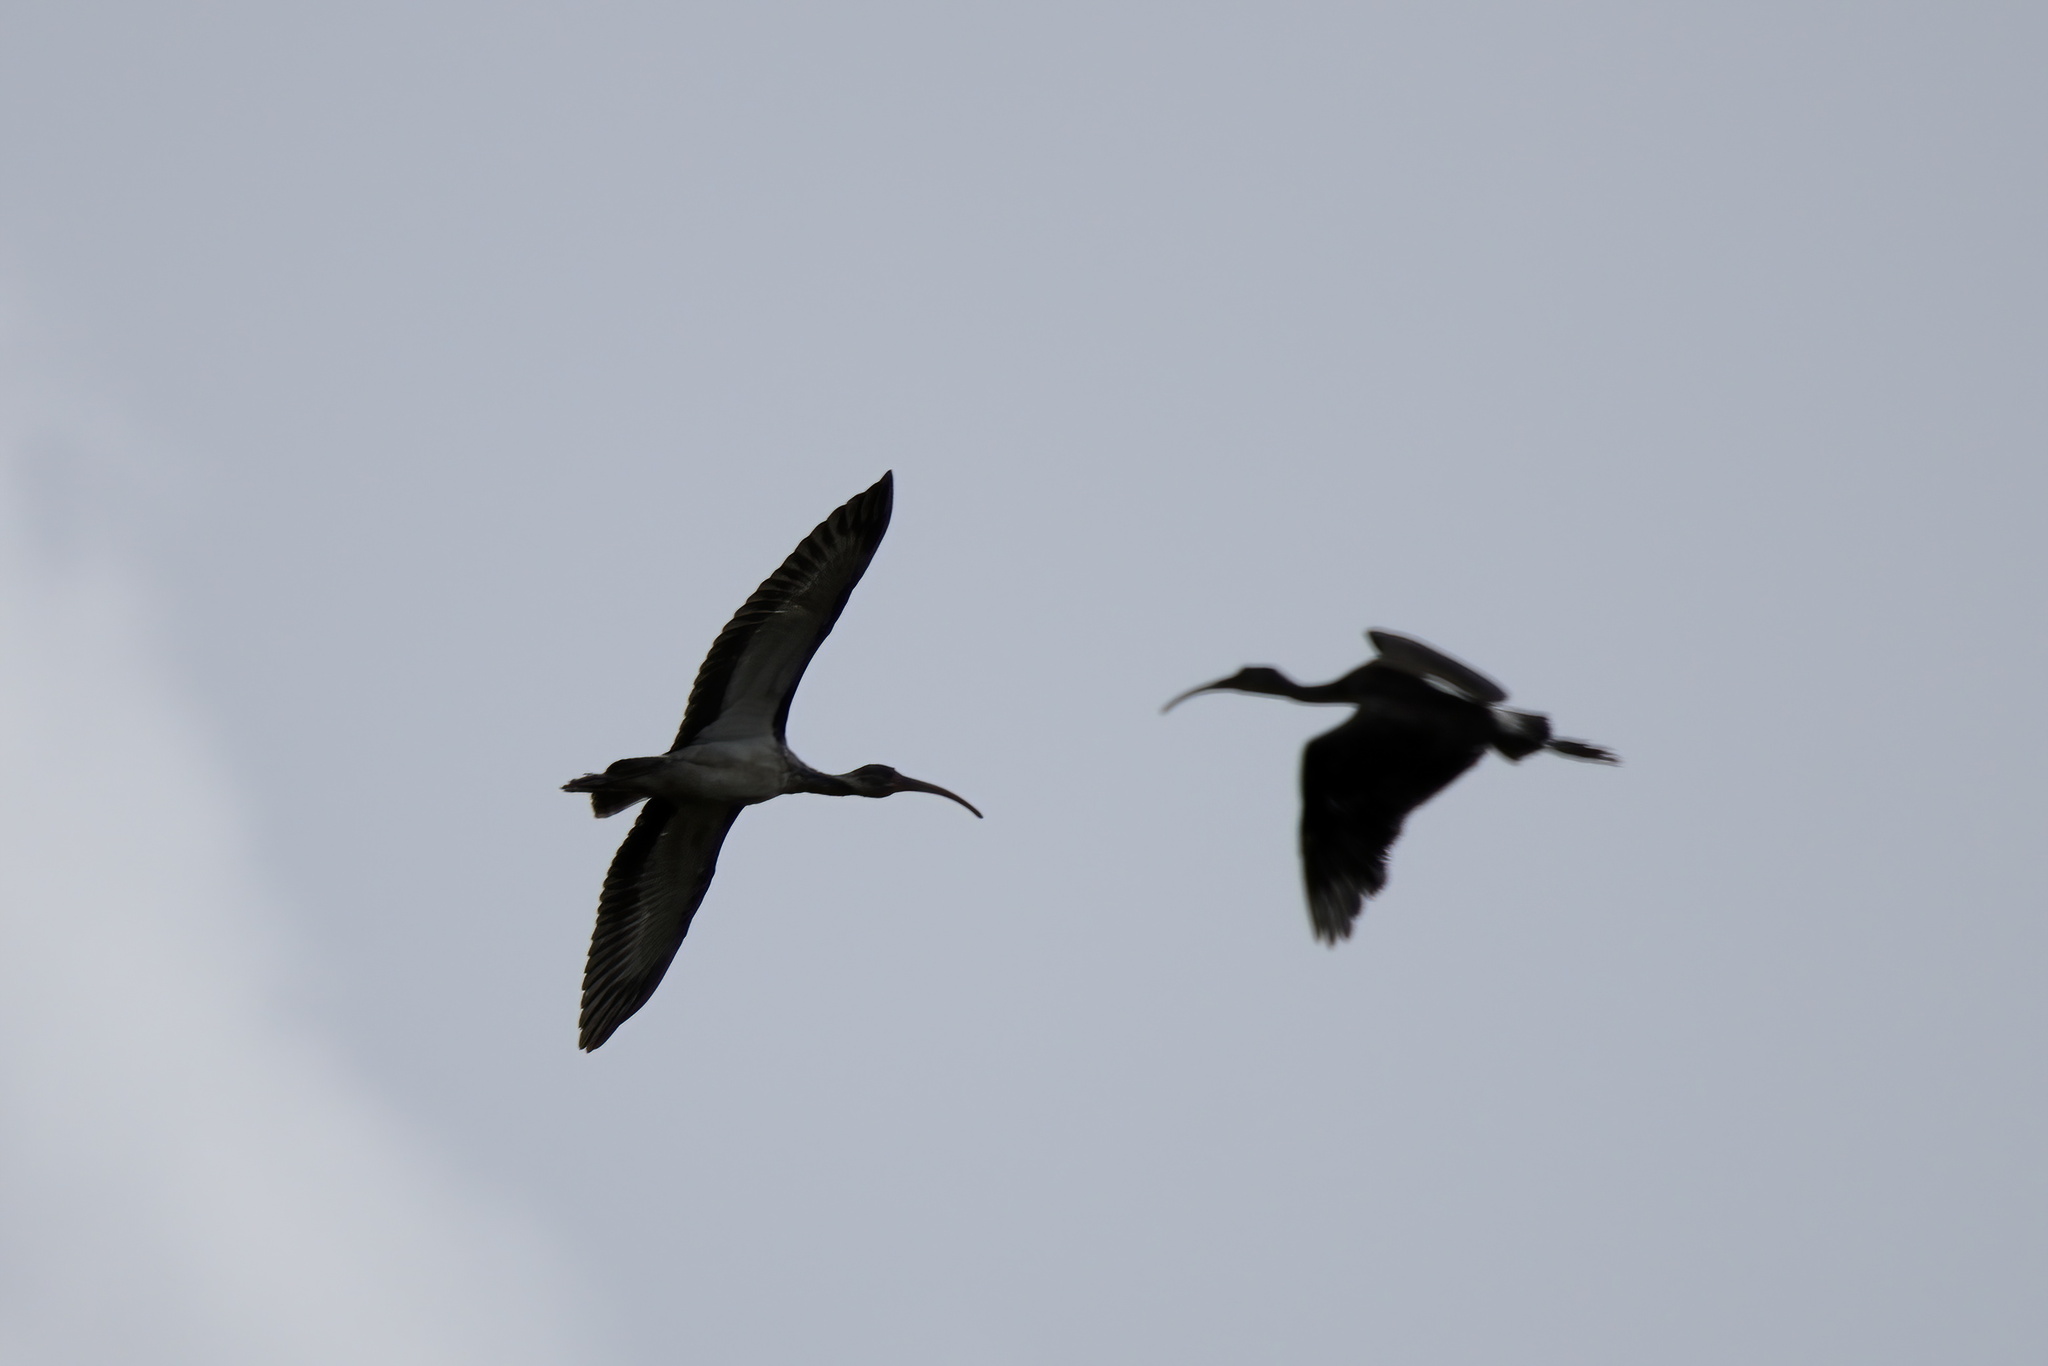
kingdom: Animalia
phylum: Chordata
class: Aves
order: Pelecaniformes
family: Threskiornithidae
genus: Eudocimus
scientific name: Eudocimus albus
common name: White ibis
